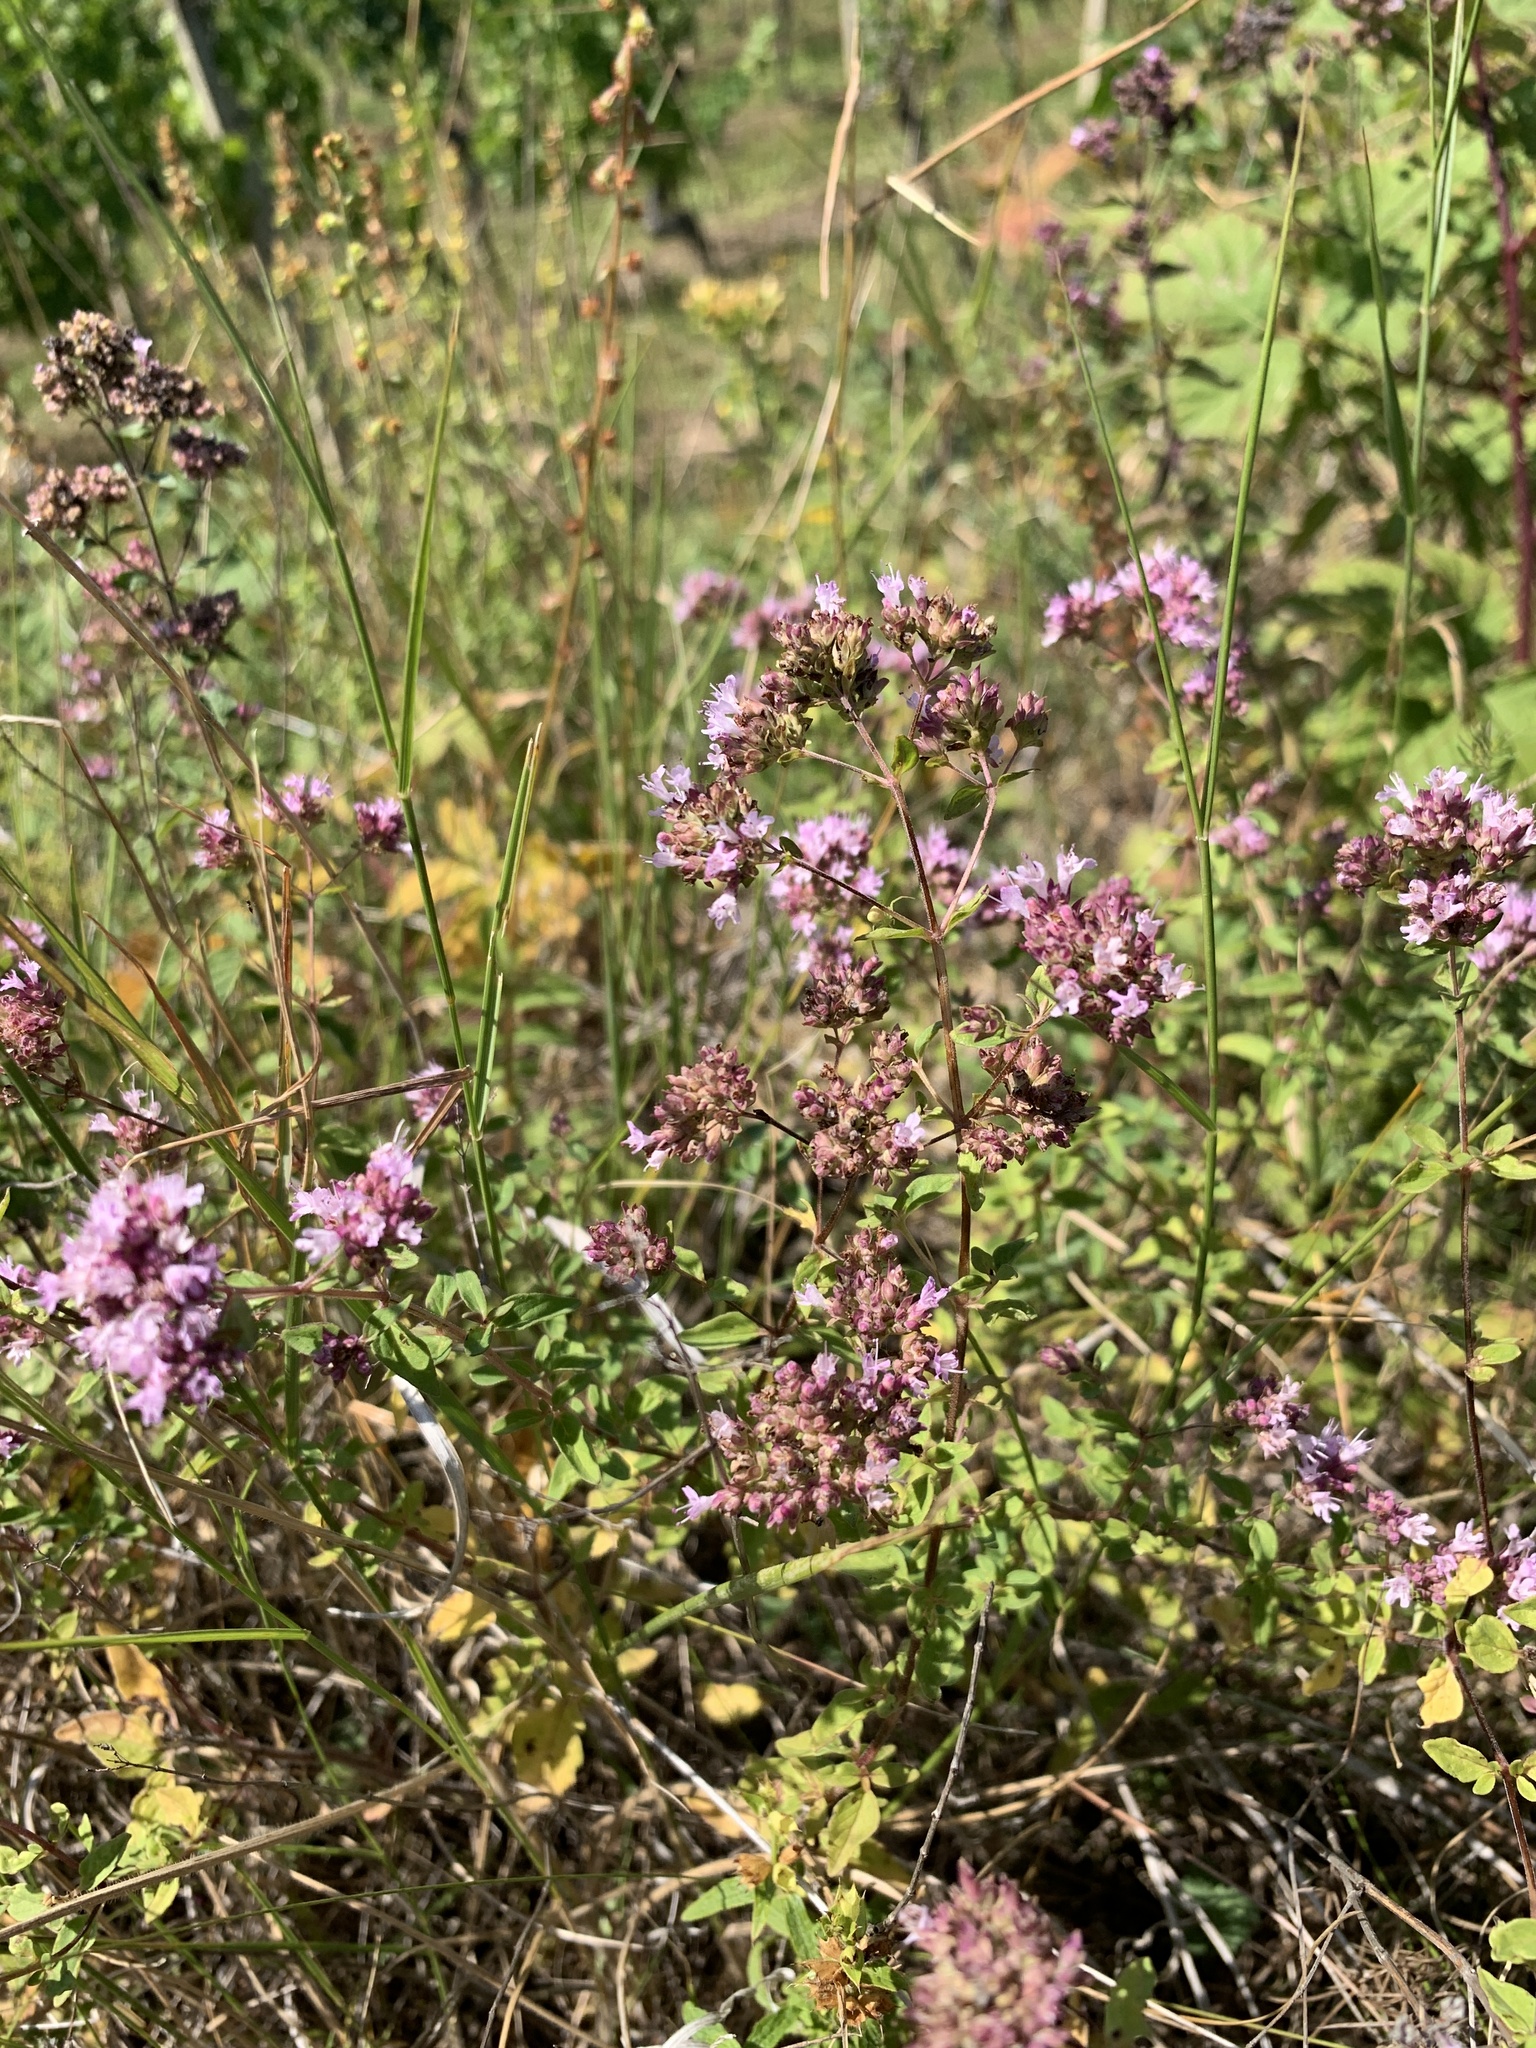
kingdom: Plantae
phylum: Tracheophyta
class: Magnoliopsida
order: Lamiales
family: Lamiaceae
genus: Origanum
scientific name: Origanum vulgare
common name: Wild marjoram
